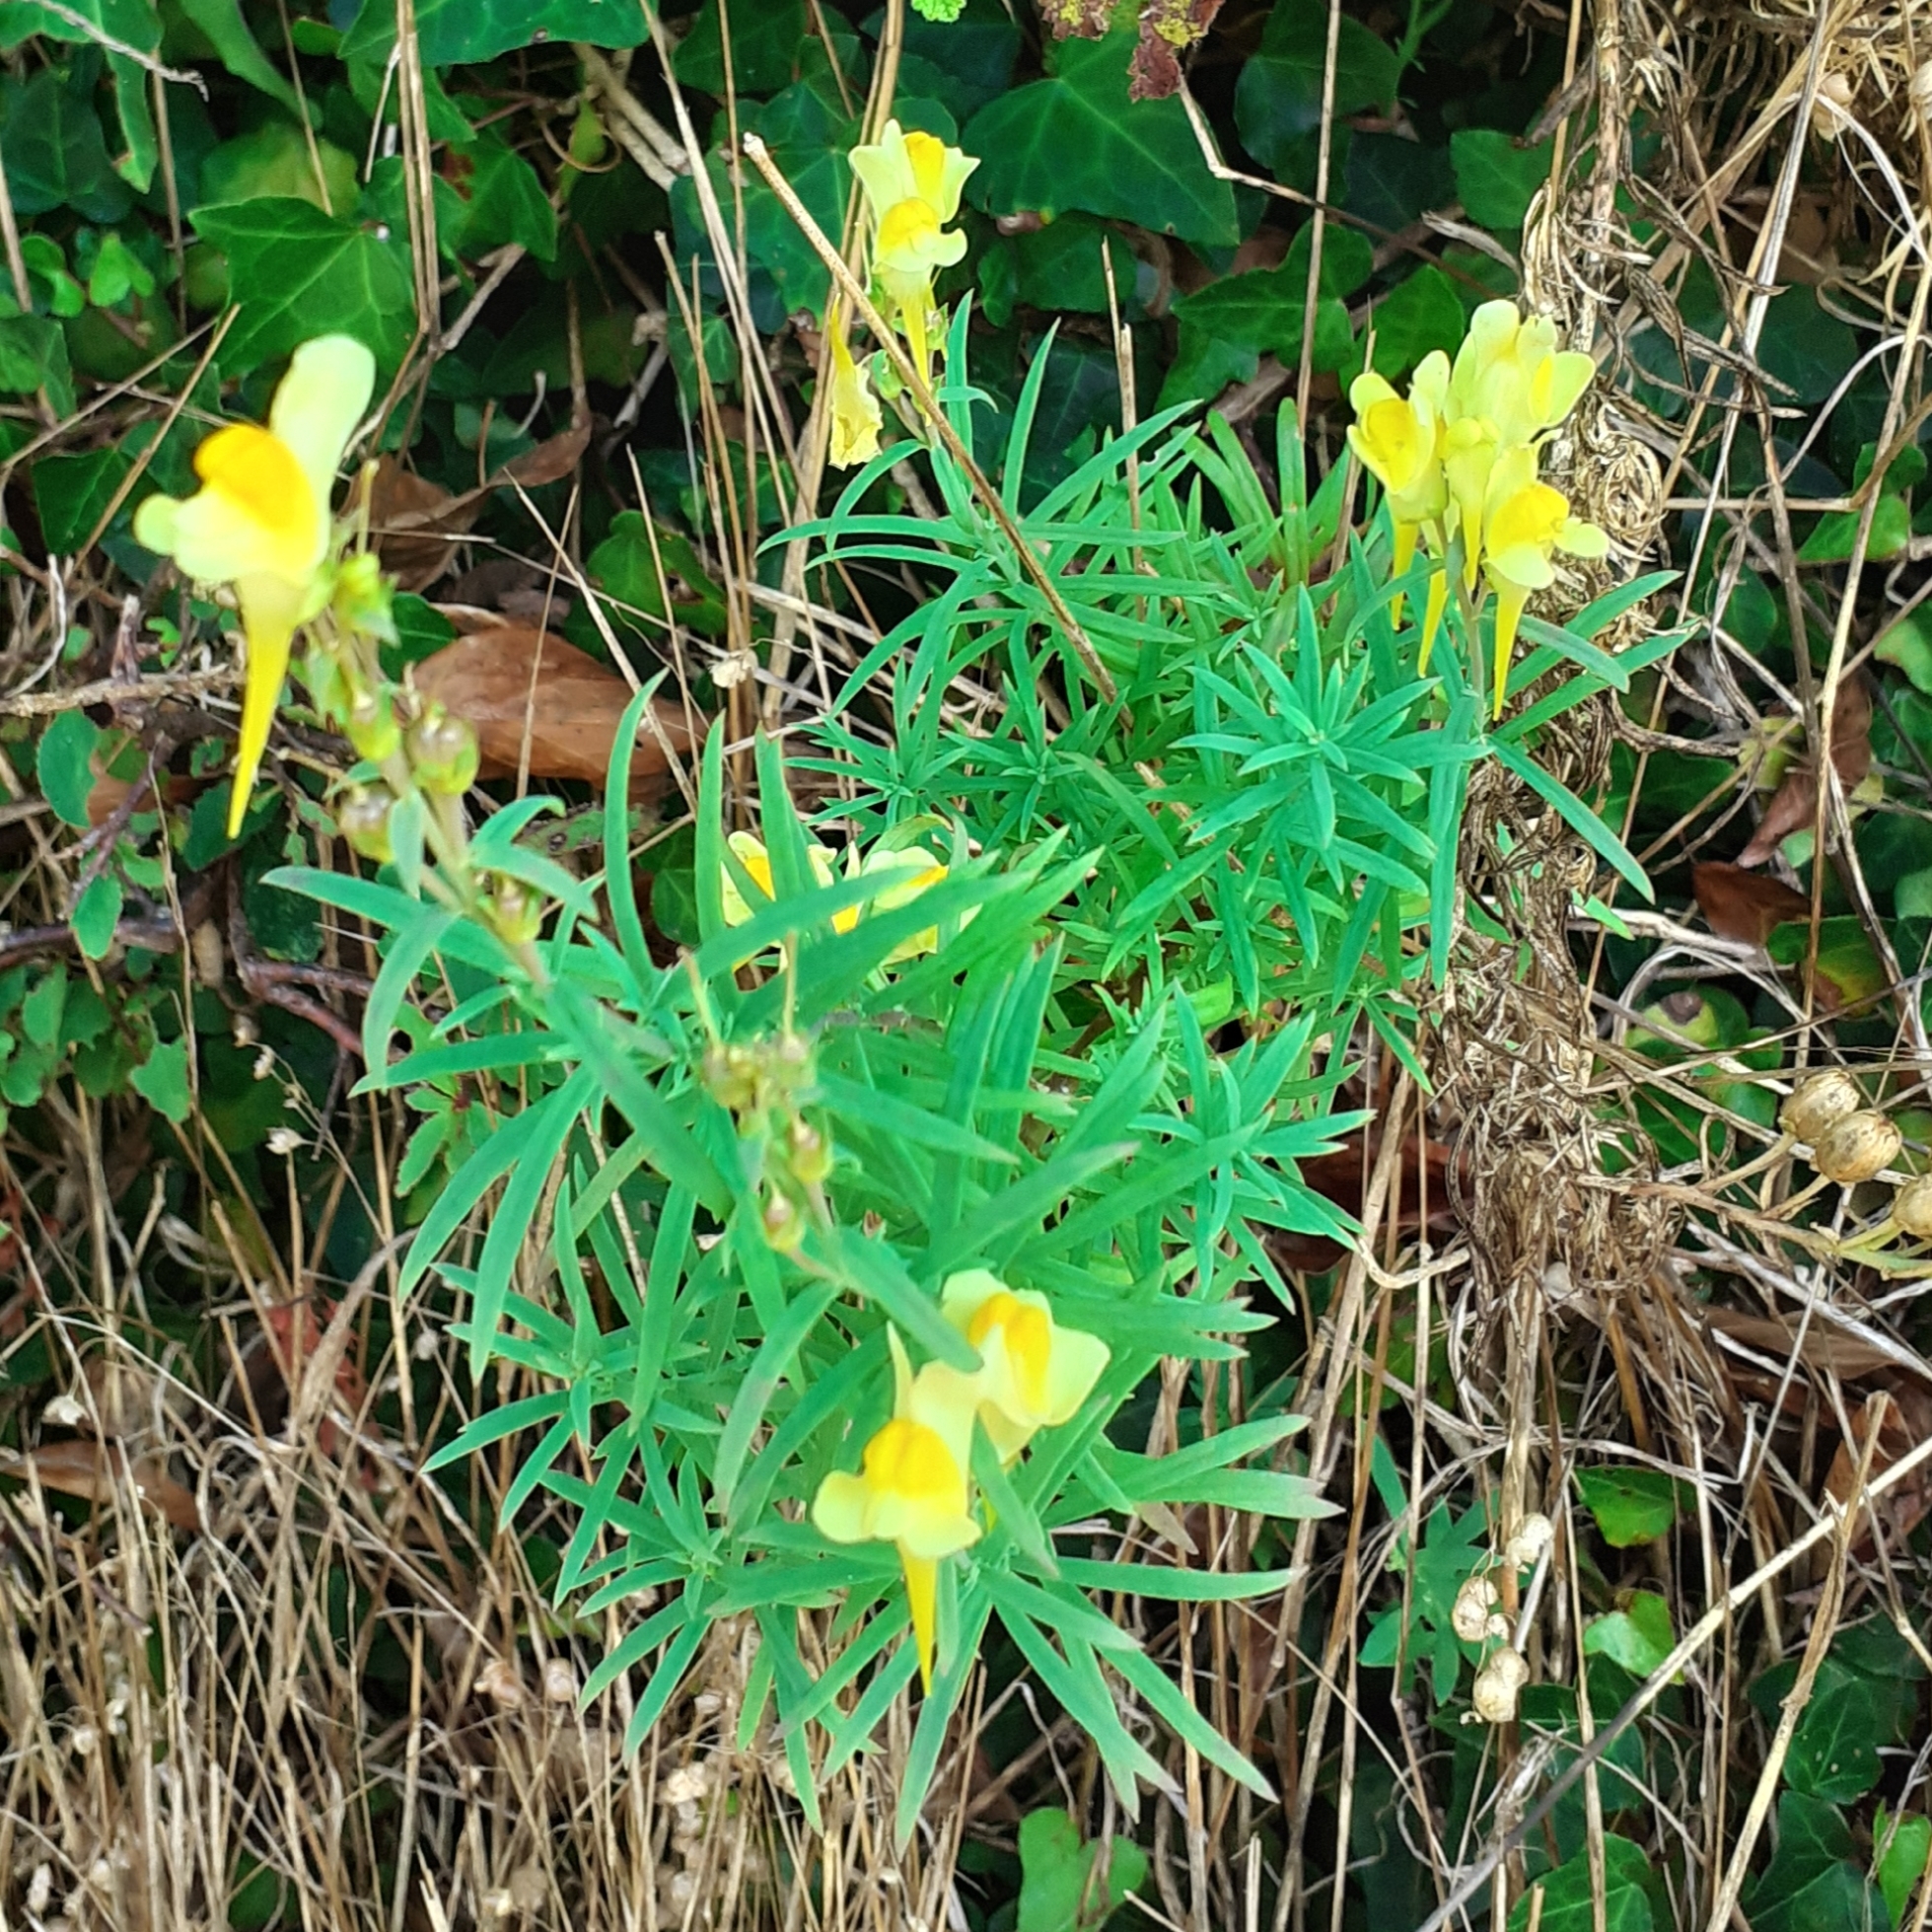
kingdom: Plantae
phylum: Tracheophyta
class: Magnoliopsida
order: Lamiales
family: Plantaginaceae
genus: Linaria
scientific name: Linaria vulgaris
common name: Butter and eggs
